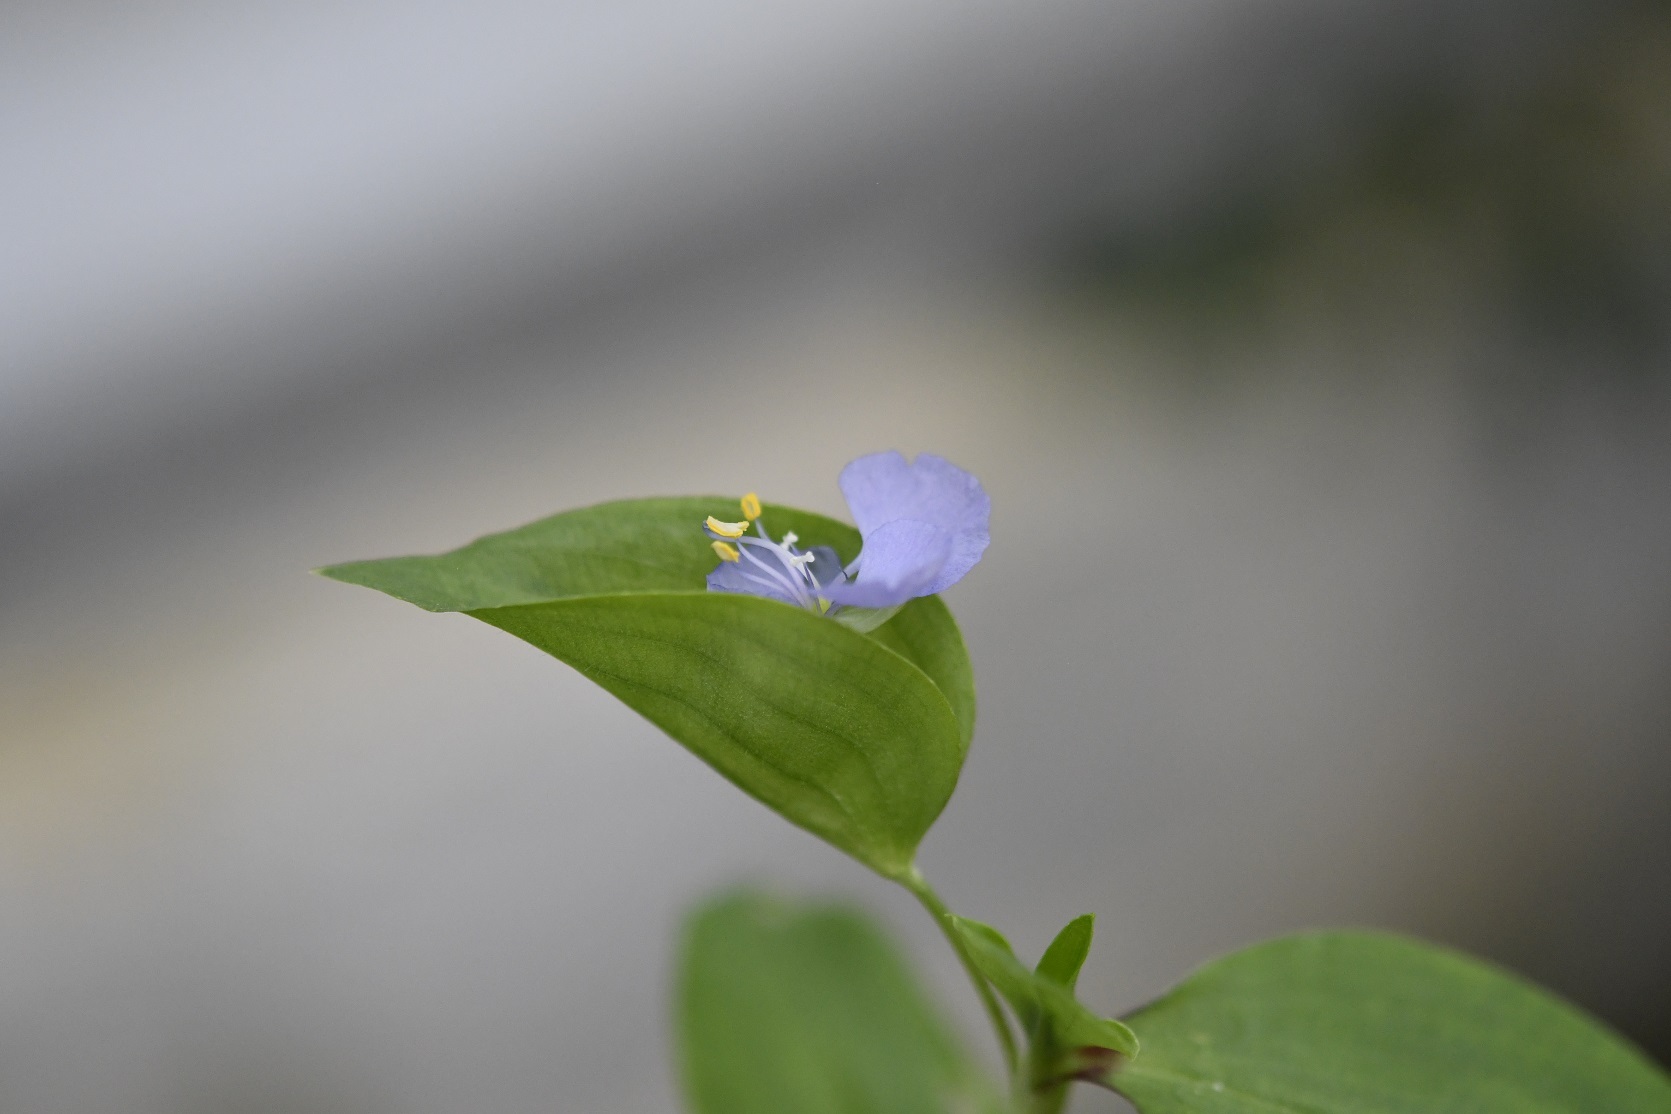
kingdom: Plantae
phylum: Tracheophyta
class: Liliopsida
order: Commelinales
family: Commelinaceae
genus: Commelina
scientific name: Commelina diffusa
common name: Climbing dayflower
